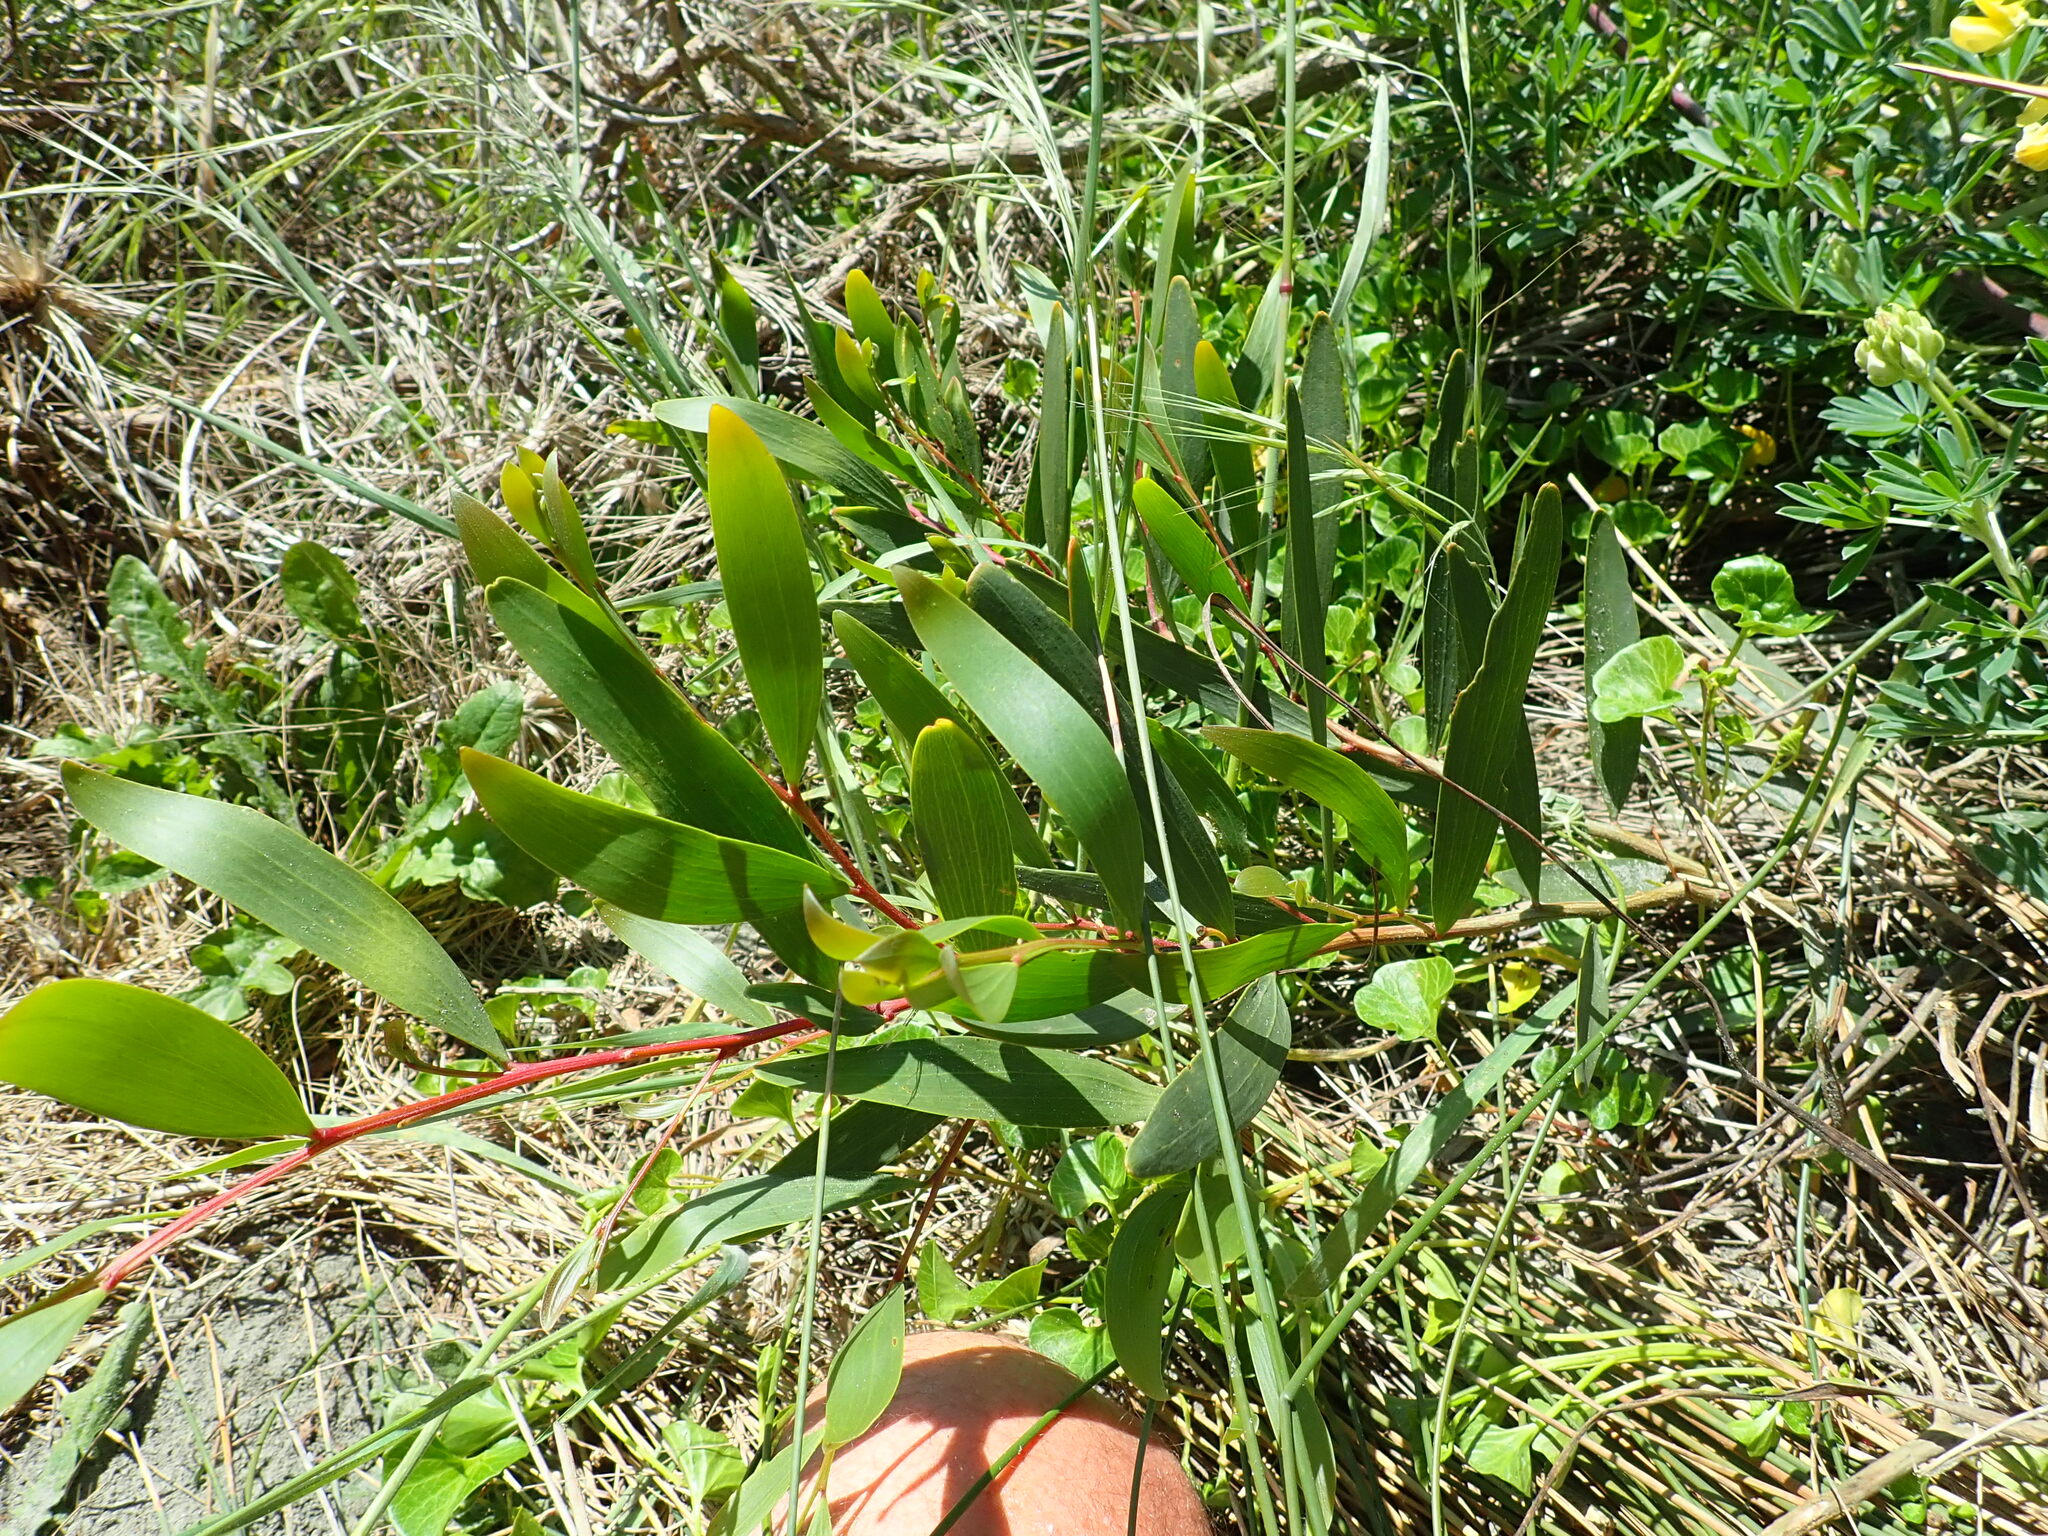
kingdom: Plantae
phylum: Tracheophyta
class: Magnoliopsida
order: Fabales
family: Fabaceae
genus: Acacia
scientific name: Acacia longifolia
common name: Sydney golden wattle
